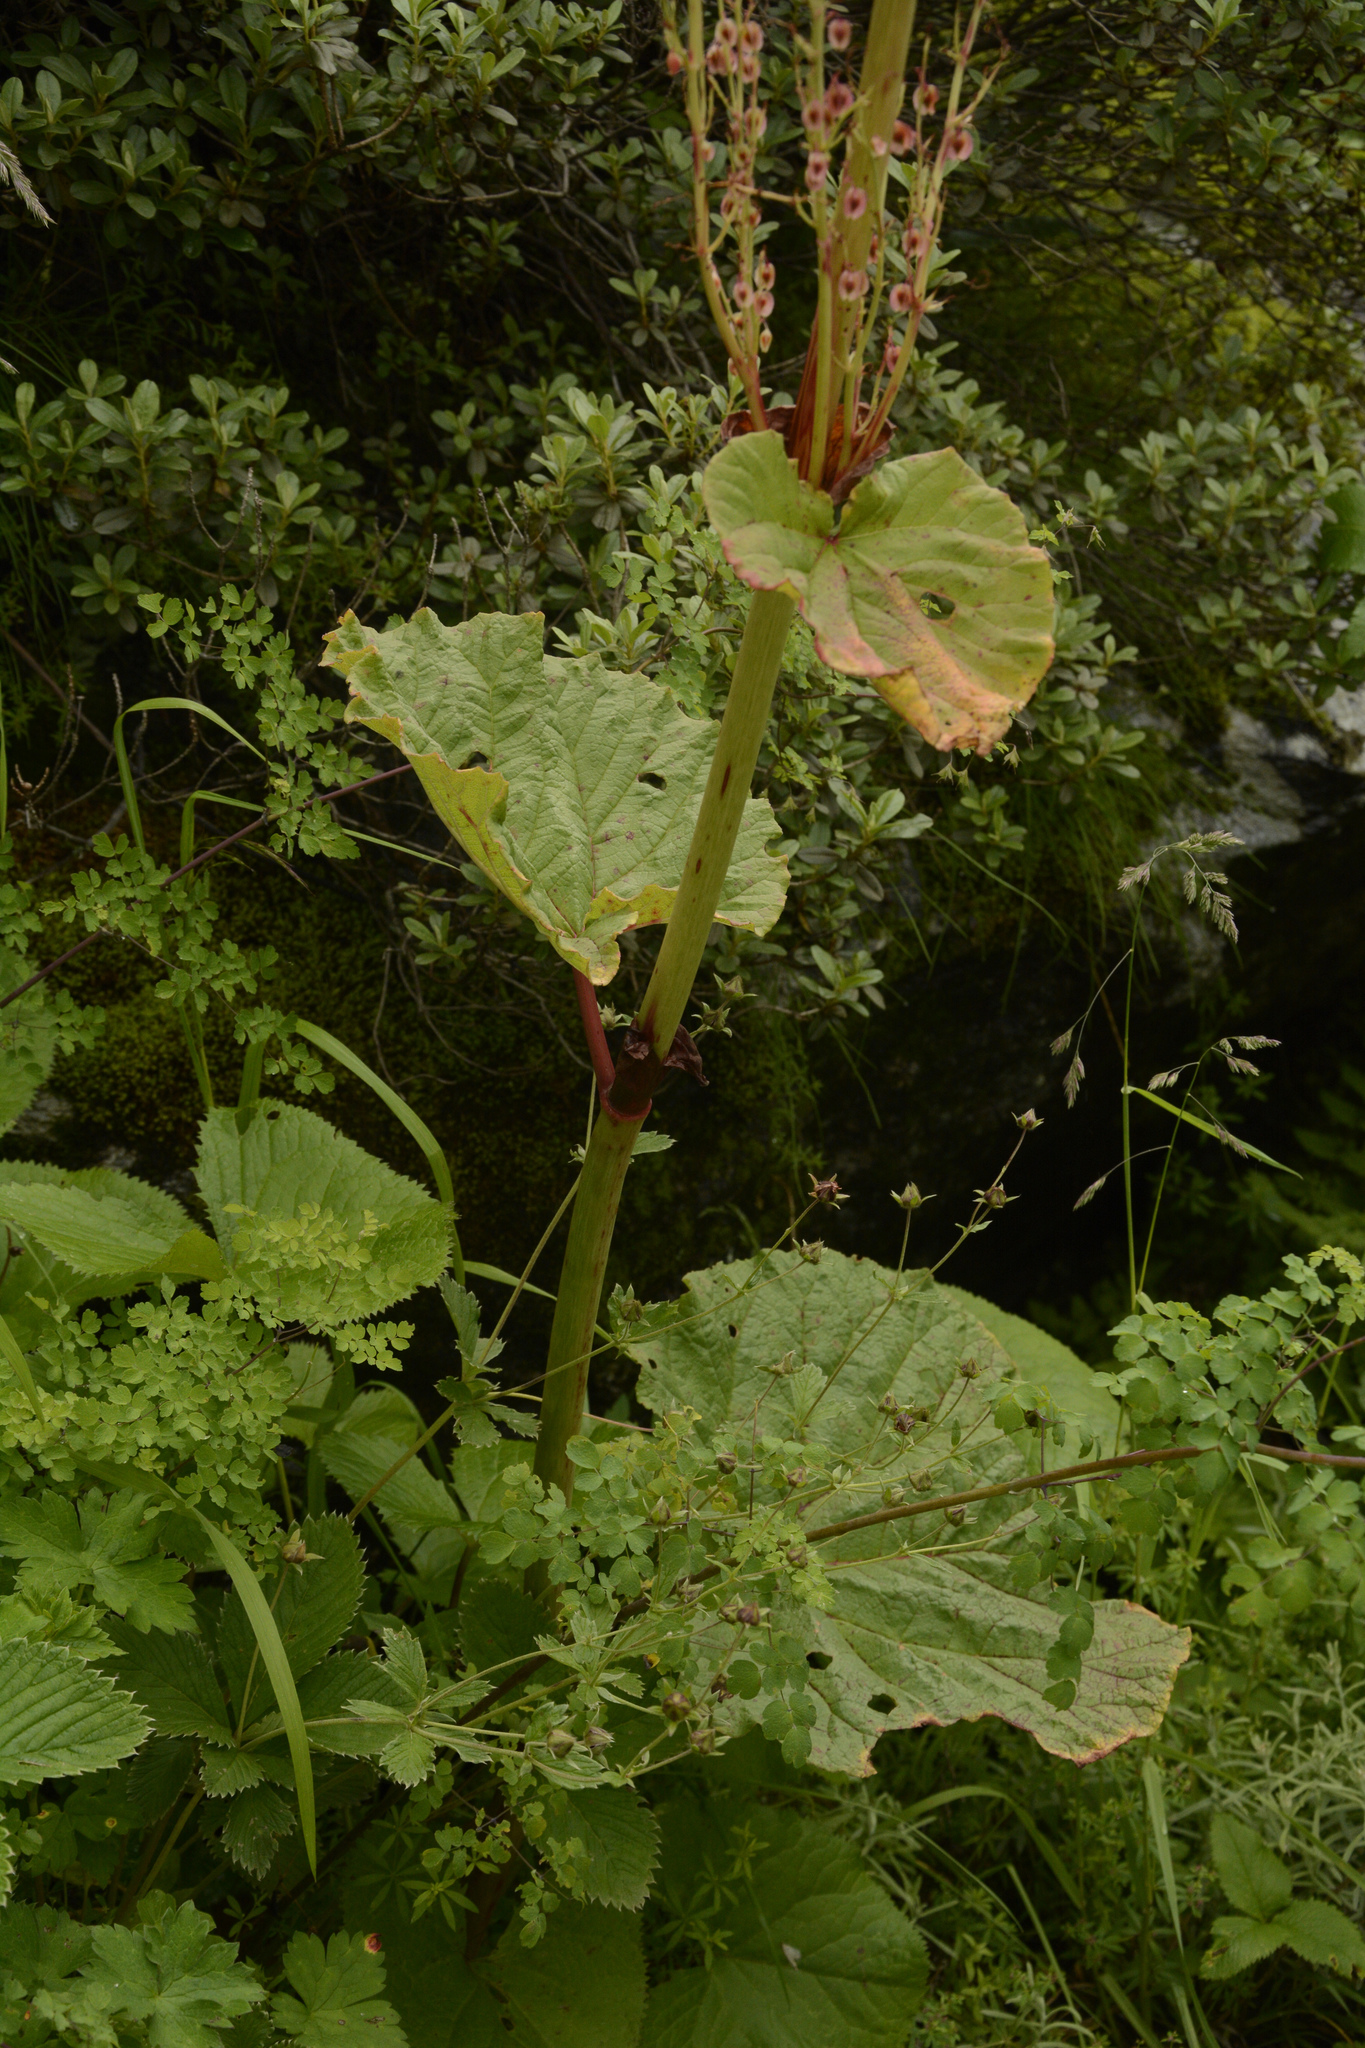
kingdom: Plantae
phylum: Tracheophyta
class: Magnoliopsida
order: Caryophyllales
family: Polygonaceae
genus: Rheum
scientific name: Rheum australe
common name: Himalayan rhubarb
